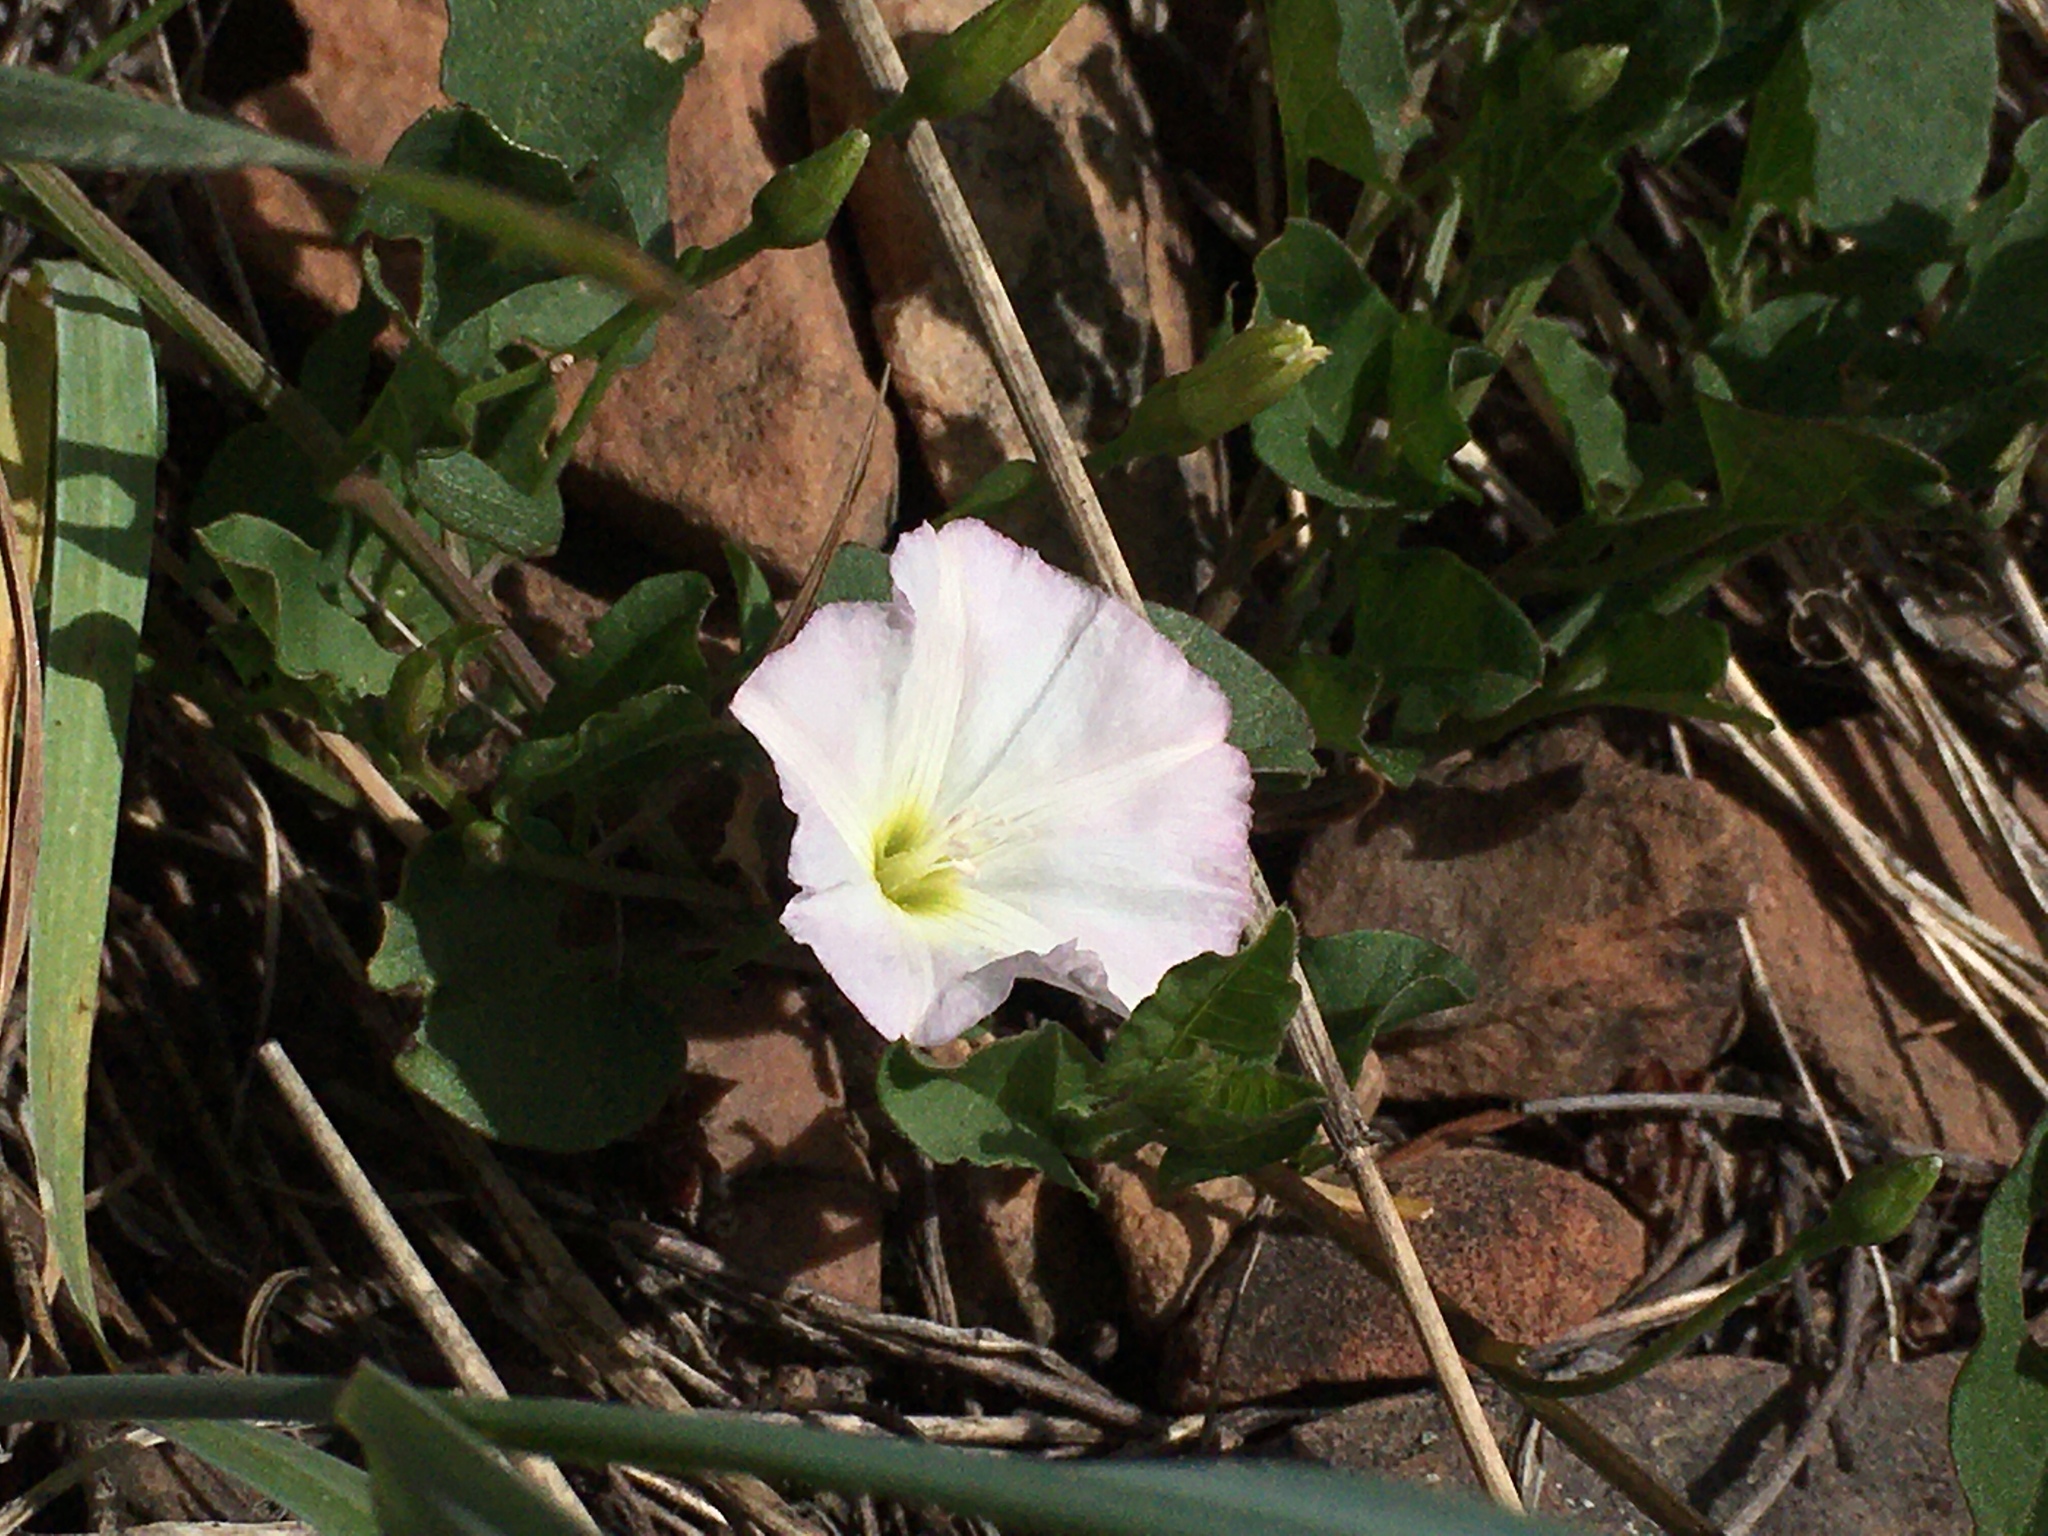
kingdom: Plantae
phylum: Tracheophyta
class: Magnoliopsida
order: Solanales
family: Convolvulaceae
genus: Convolvulus
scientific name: Convolvulus arvensis
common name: Field bindweed
